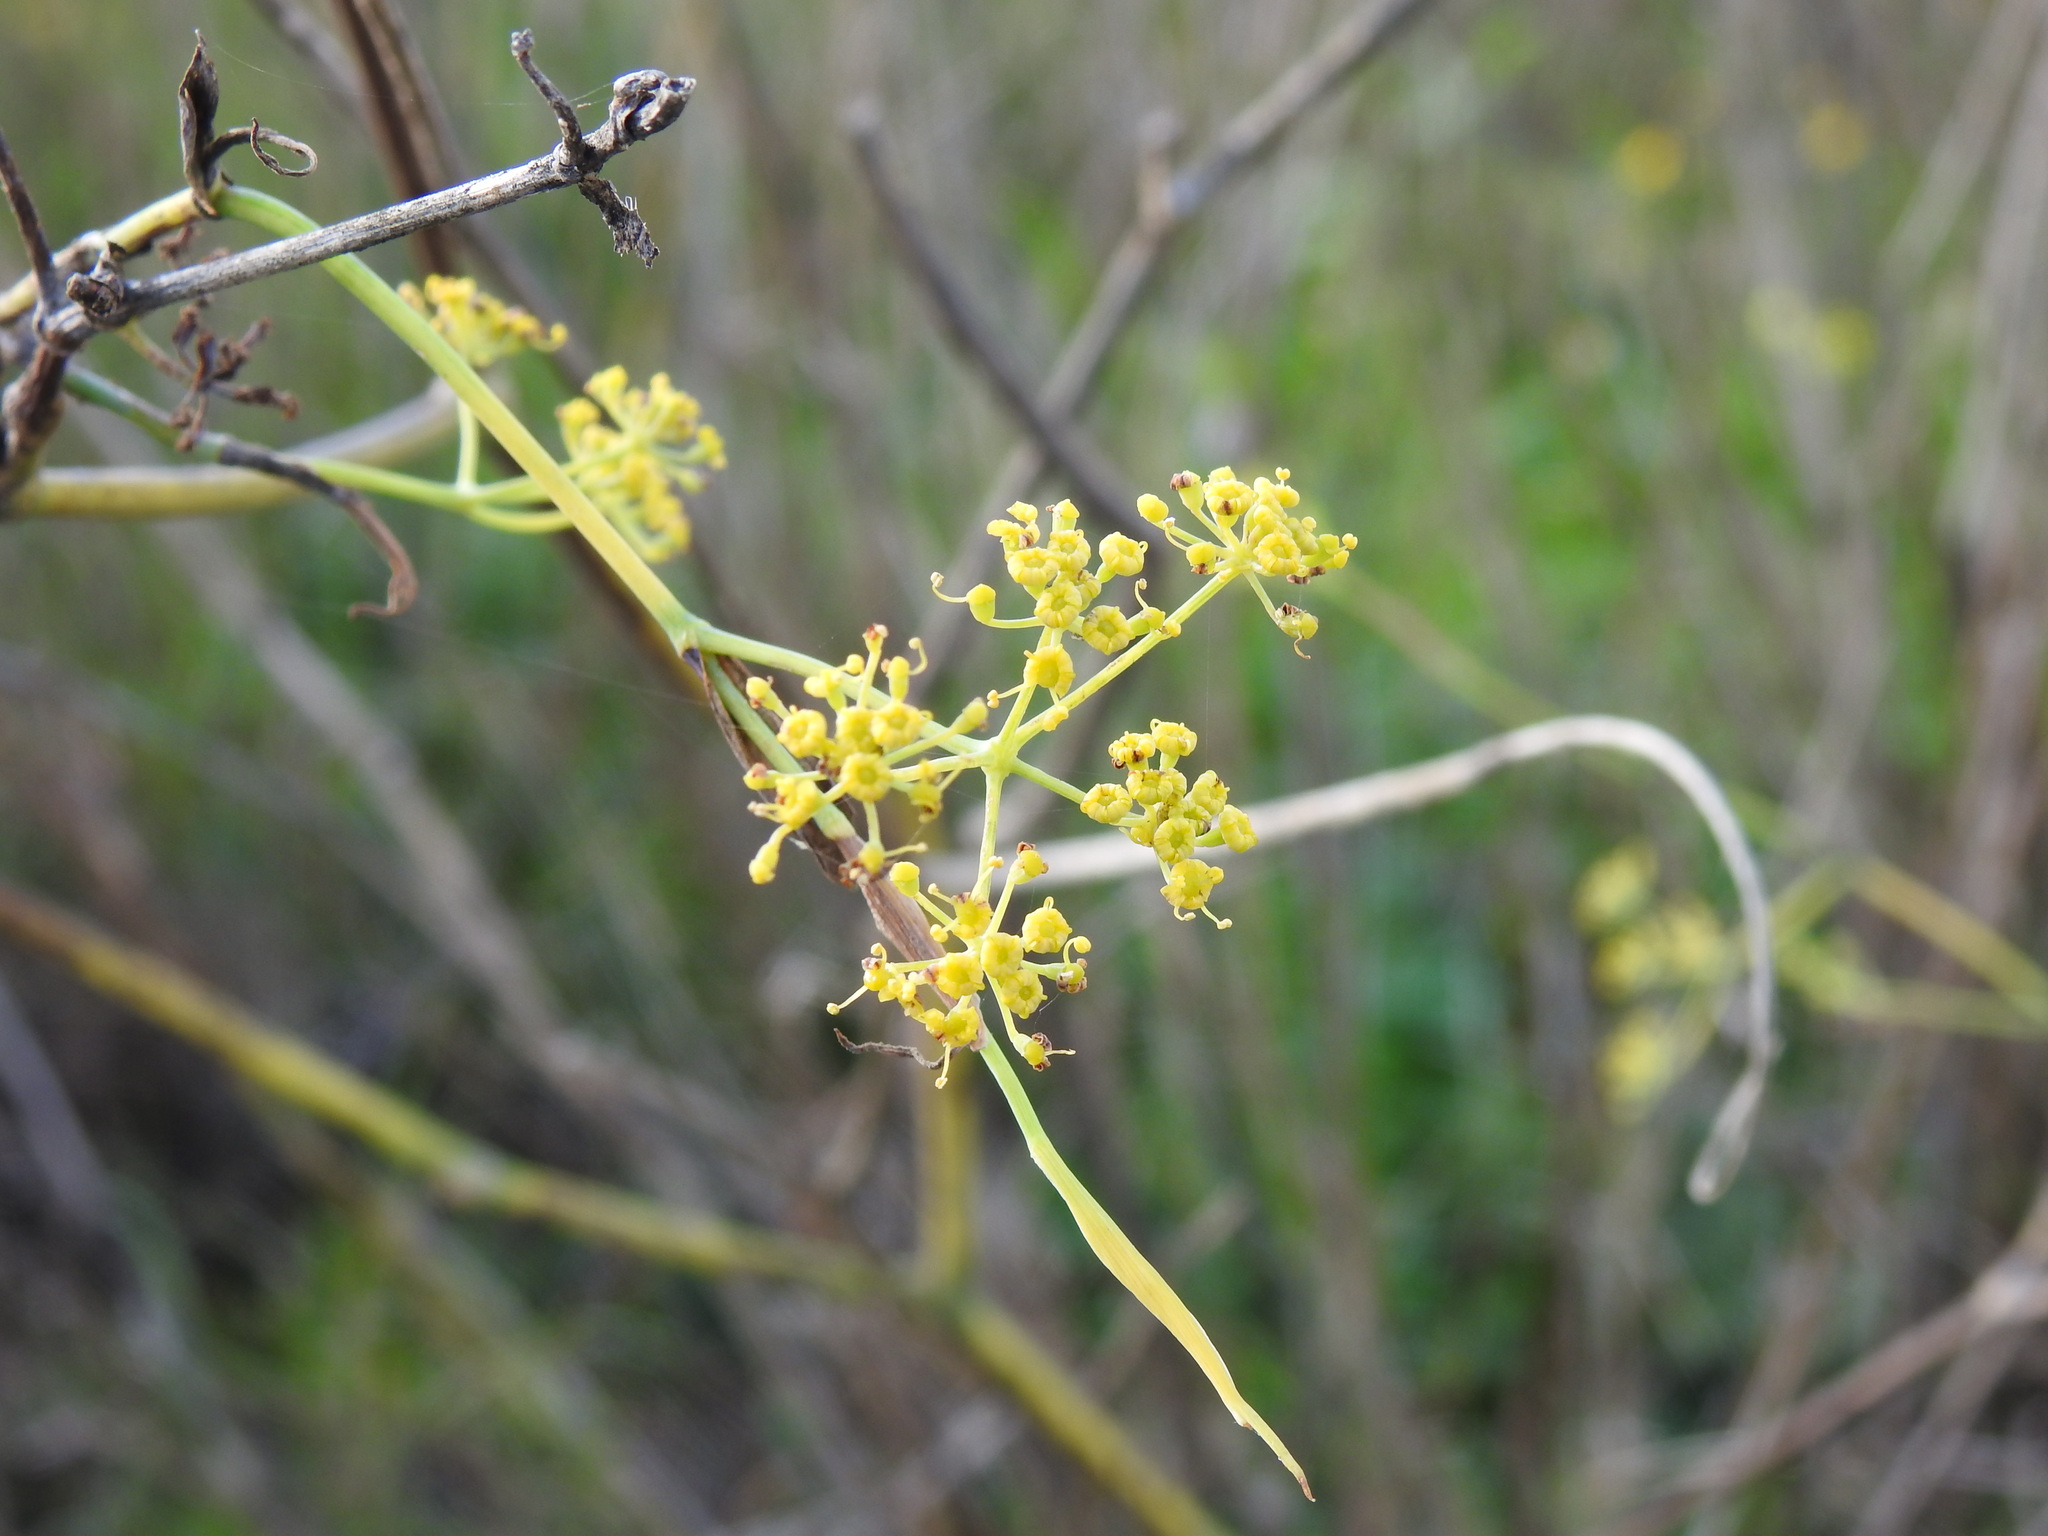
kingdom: Plantae
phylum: Tracheophyta
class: Magnoliopsida
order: Apiales
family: Apiaceae
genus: Foeniculum
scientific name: Foeniculum vulgare
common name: Fennel
